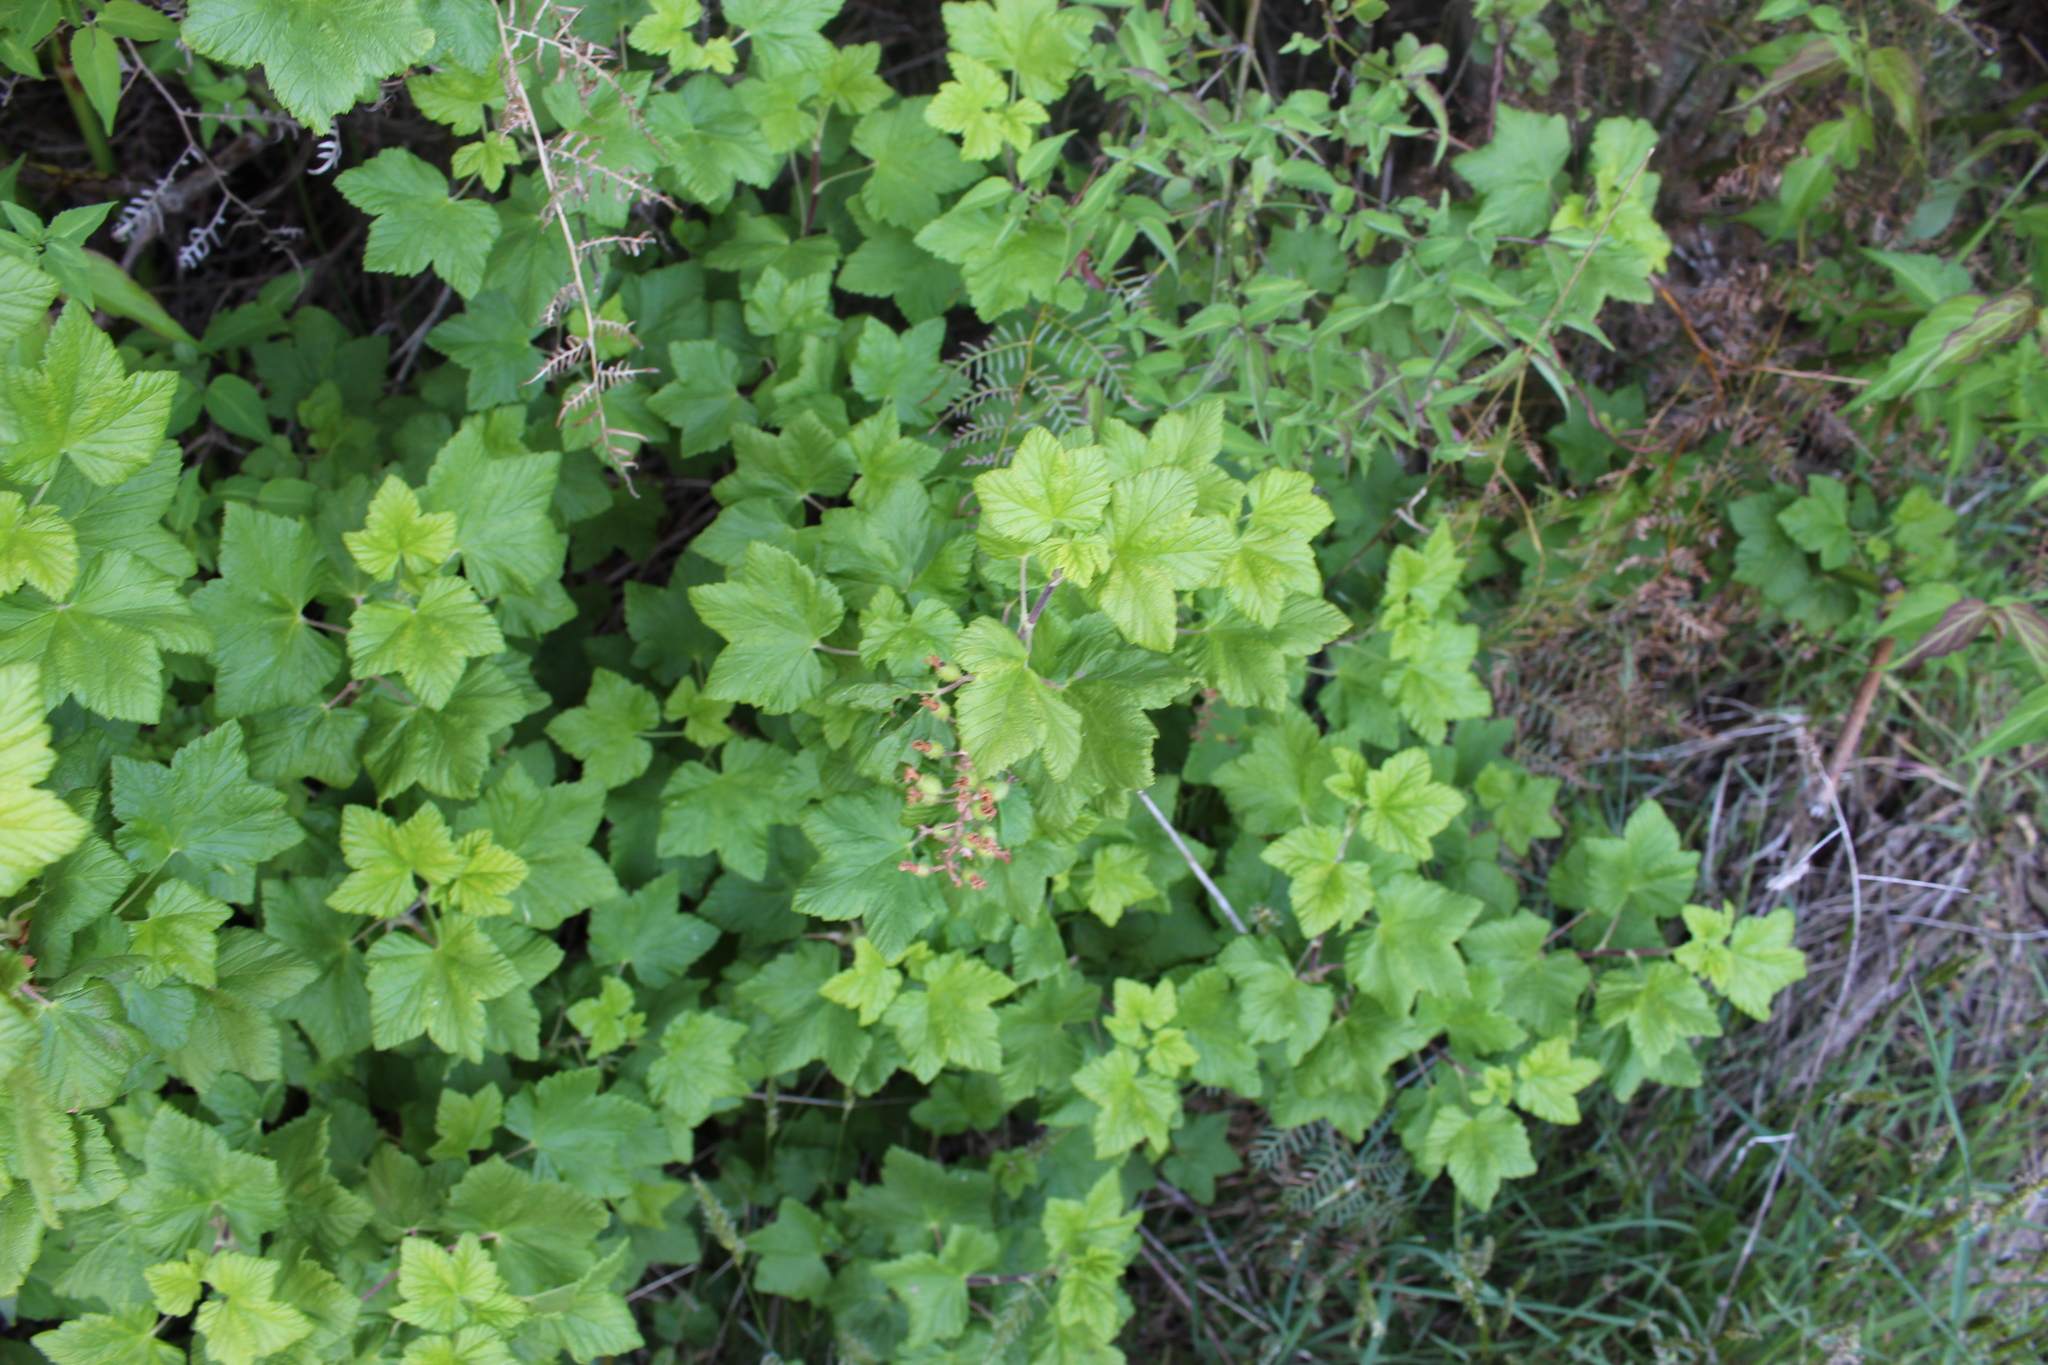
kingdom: Plantae
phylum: Tracheophyta
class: Magnoliopsida
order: Saxifragales
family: Grossulariaceae
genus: Ribes
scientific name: Ribes sanguineum
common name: Flowering currant
